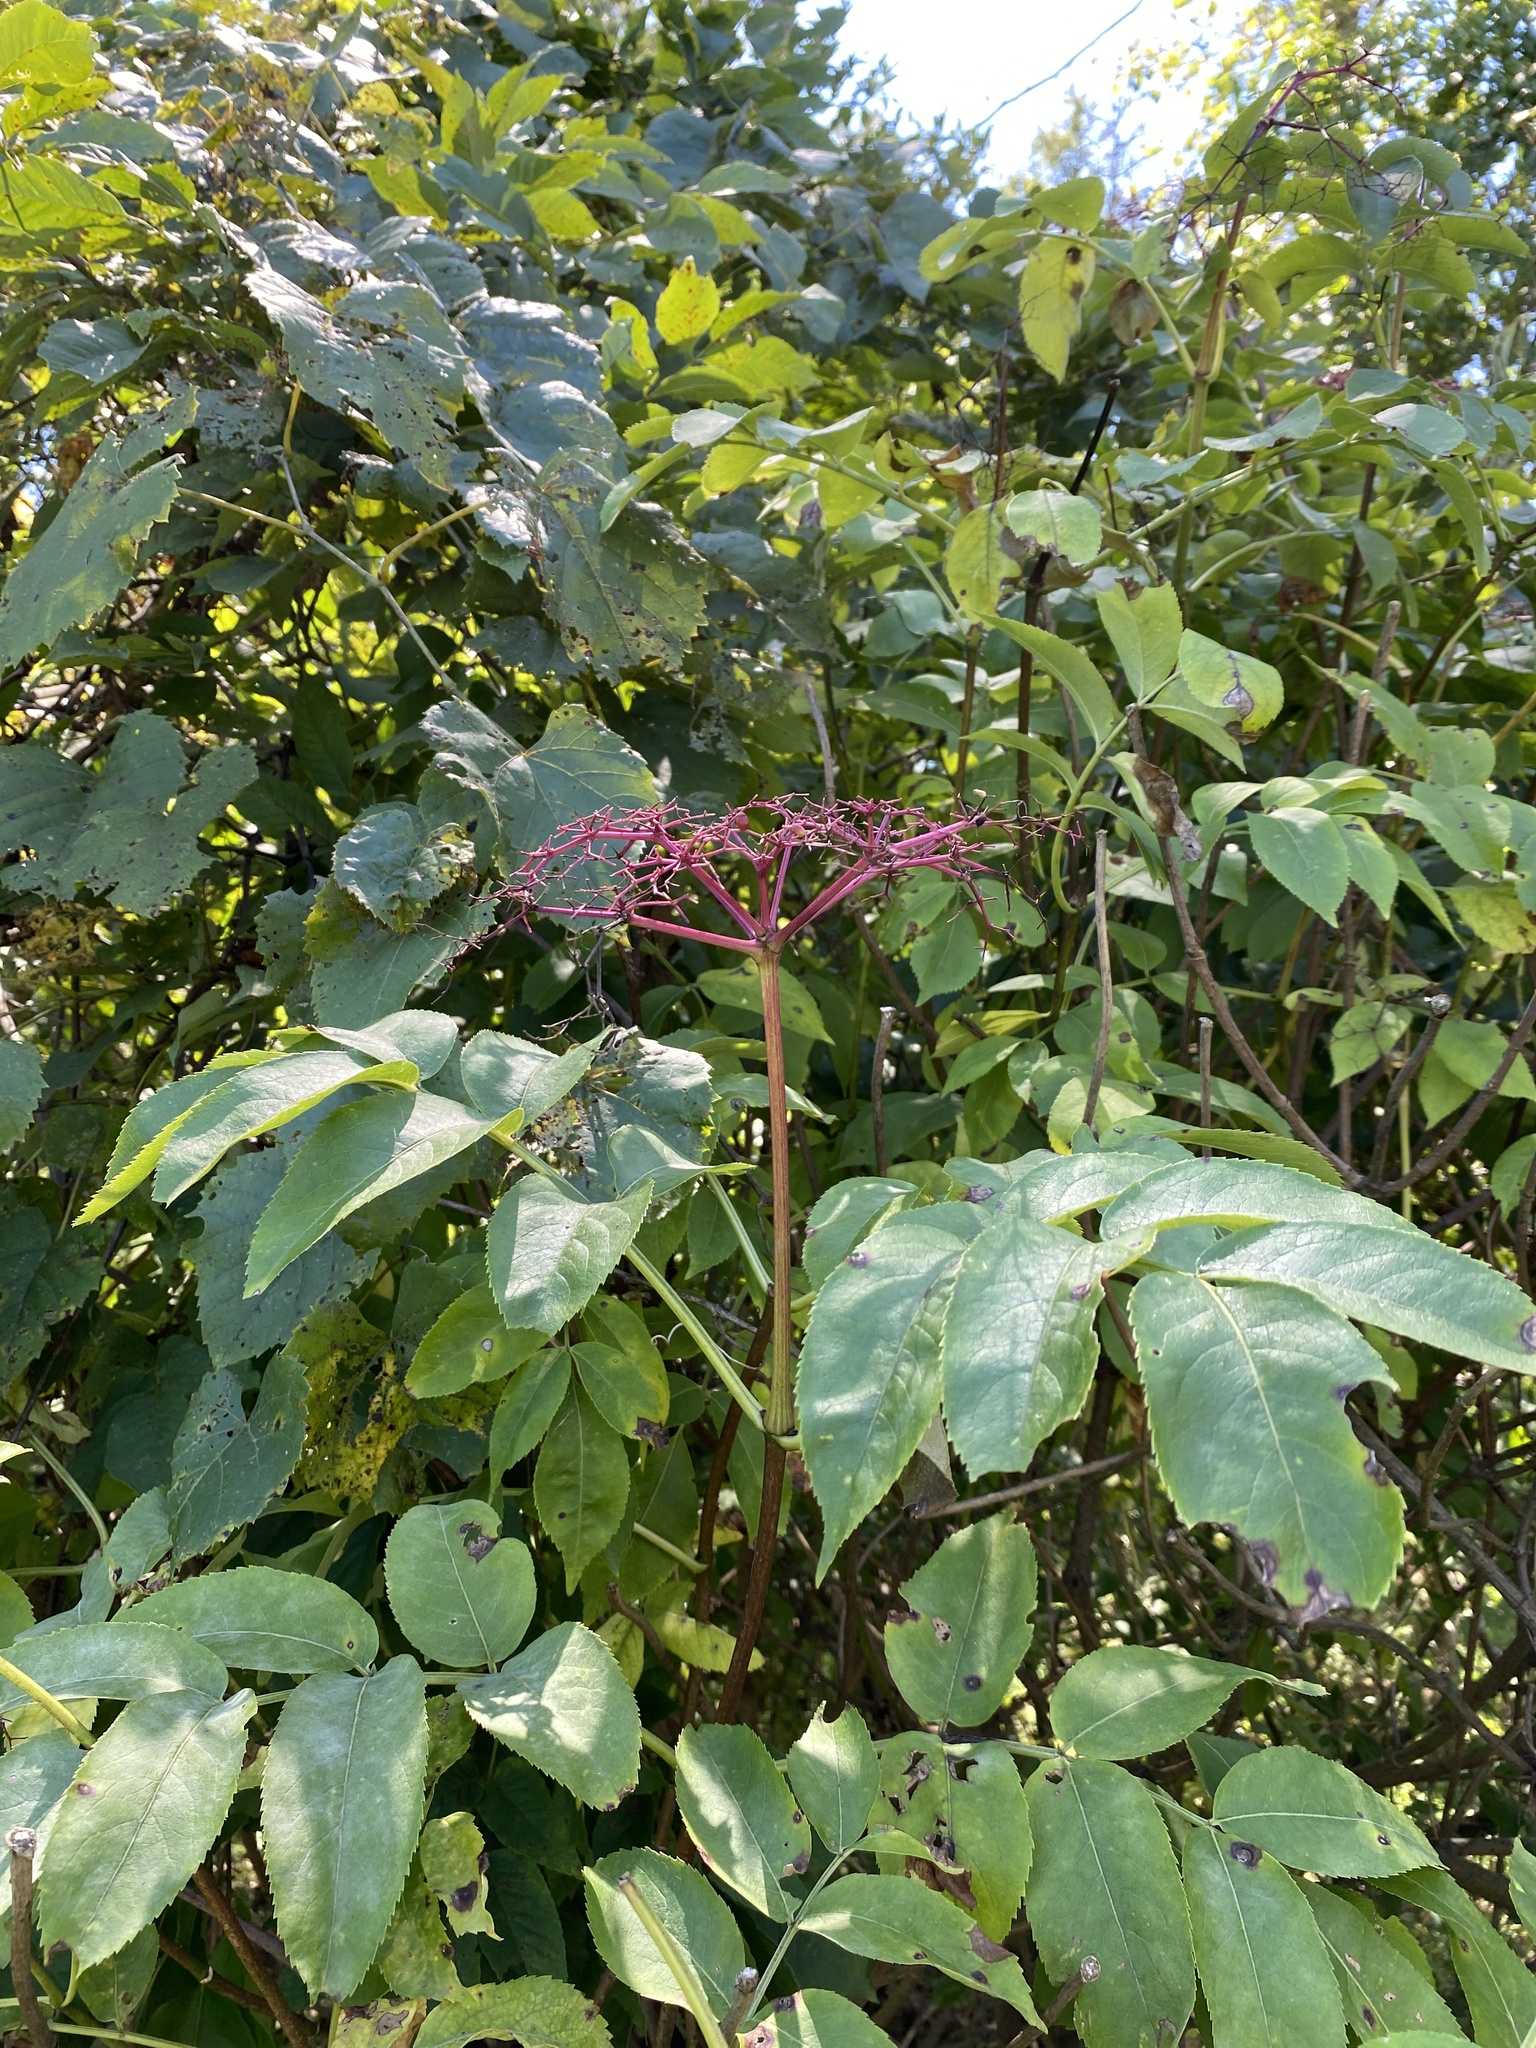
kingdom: Plantae
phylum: Tracheophyta
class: Magnoliopsida
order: Dipsacales
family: Viburnaceae
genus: Sambucus
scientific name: Sambucus canadensis
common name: American elder
